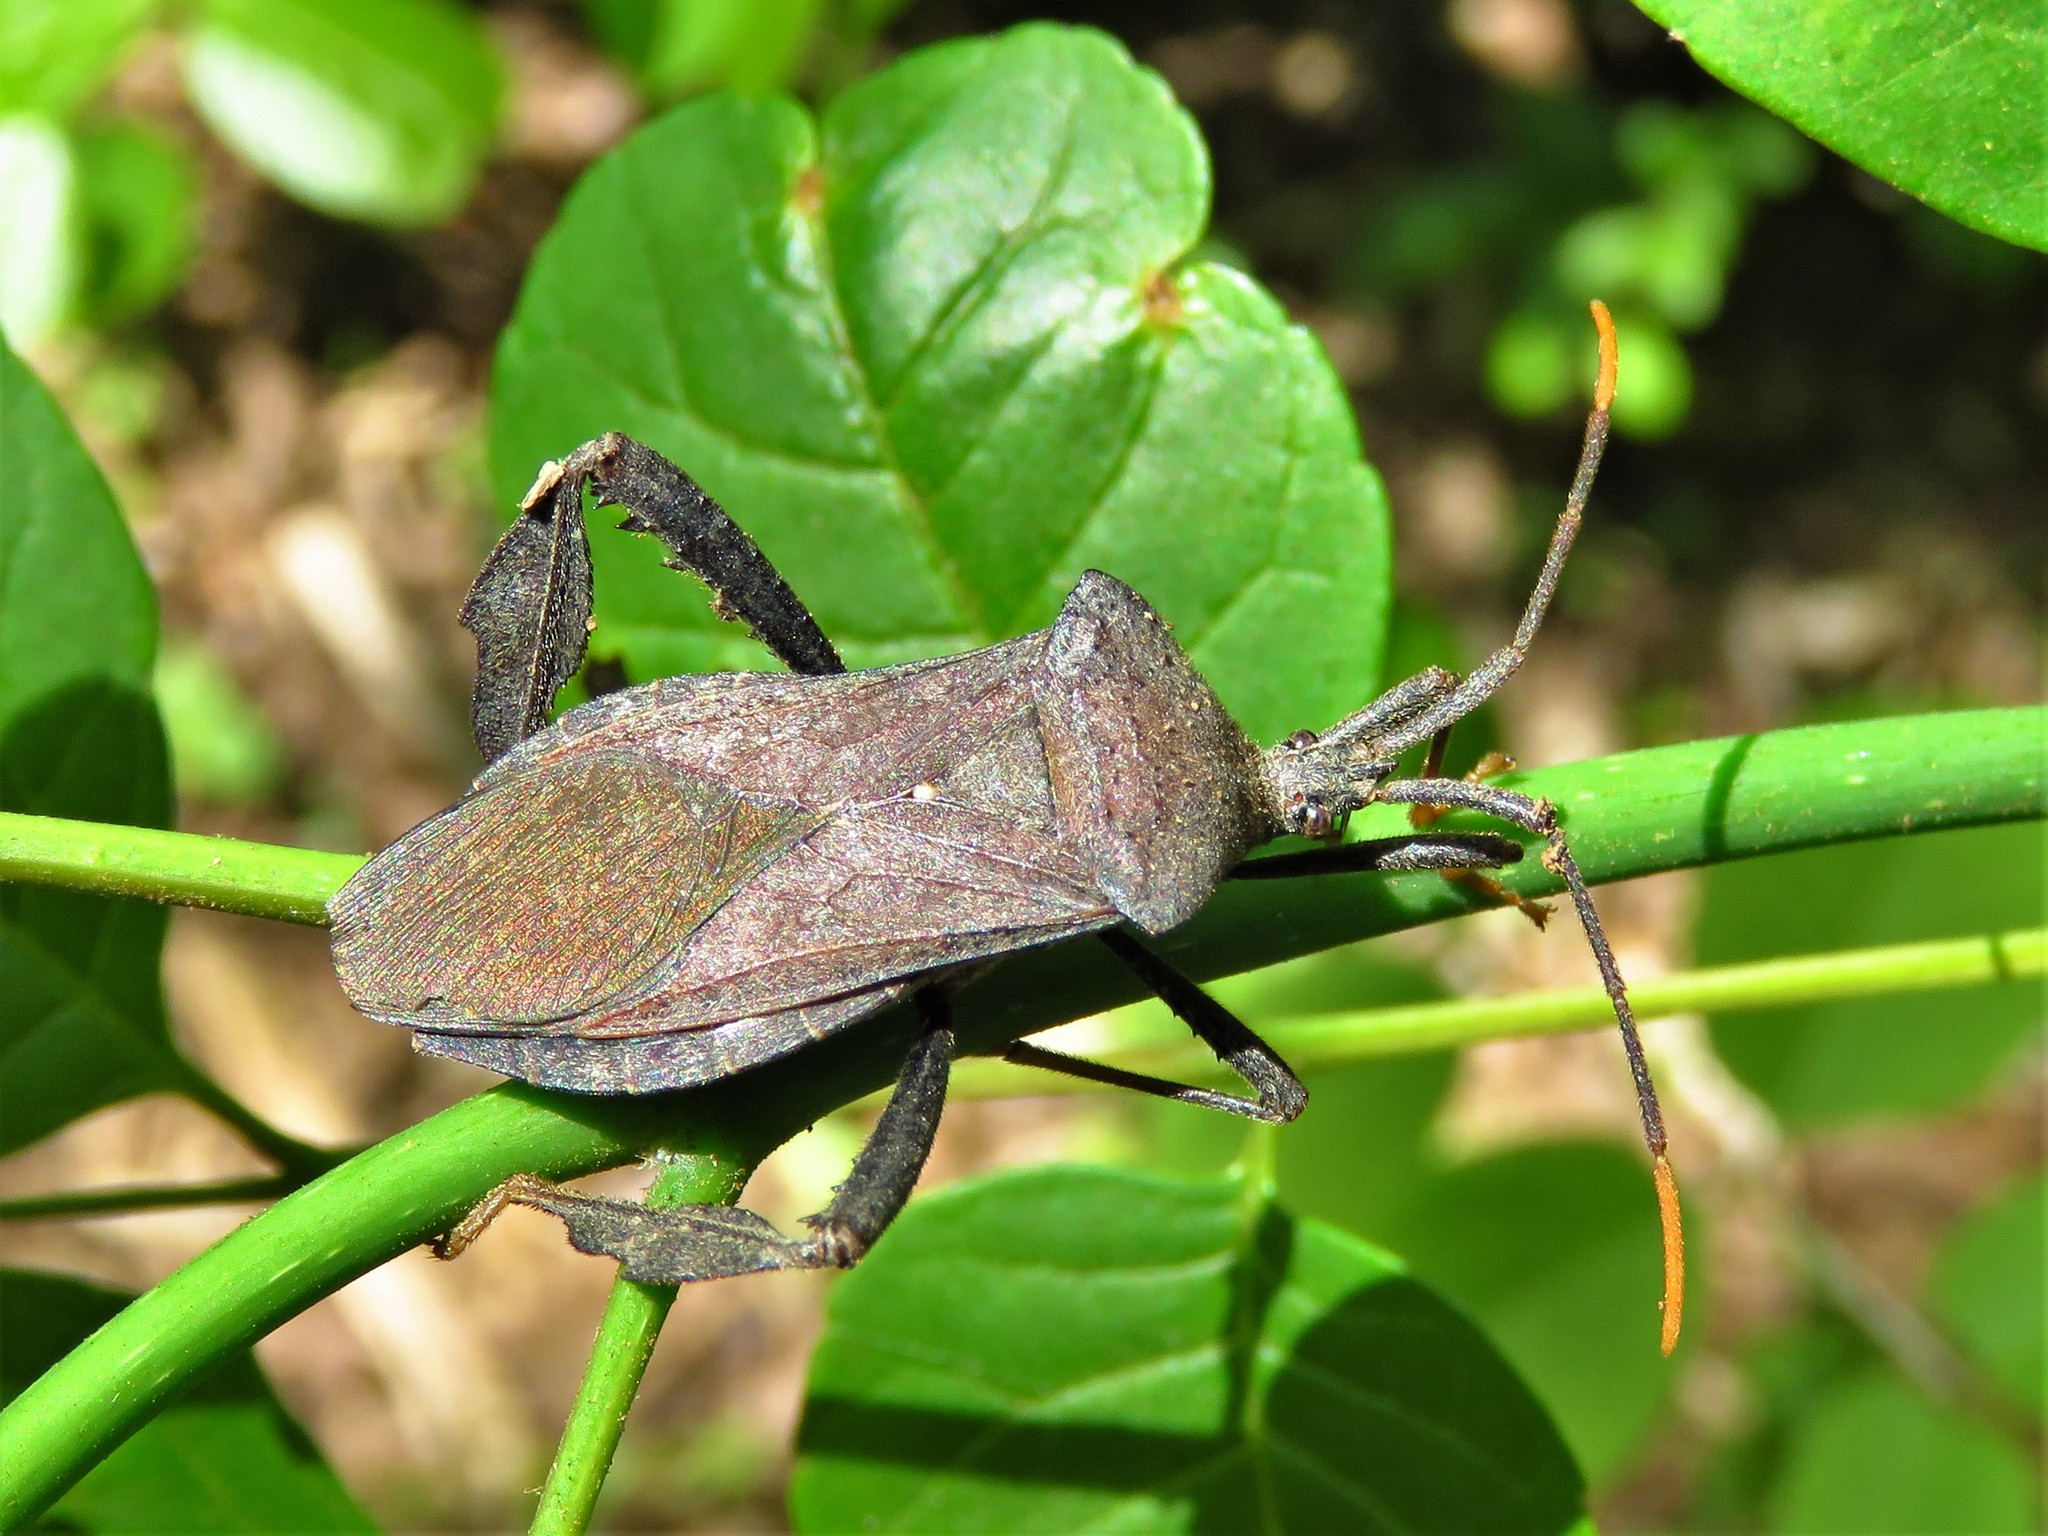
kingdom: Animalia
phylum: Arthropoda
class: Insecta
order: Hemiptera
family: Coreidae
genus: Acanthocephala
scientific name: Acanthocephala terminalis
